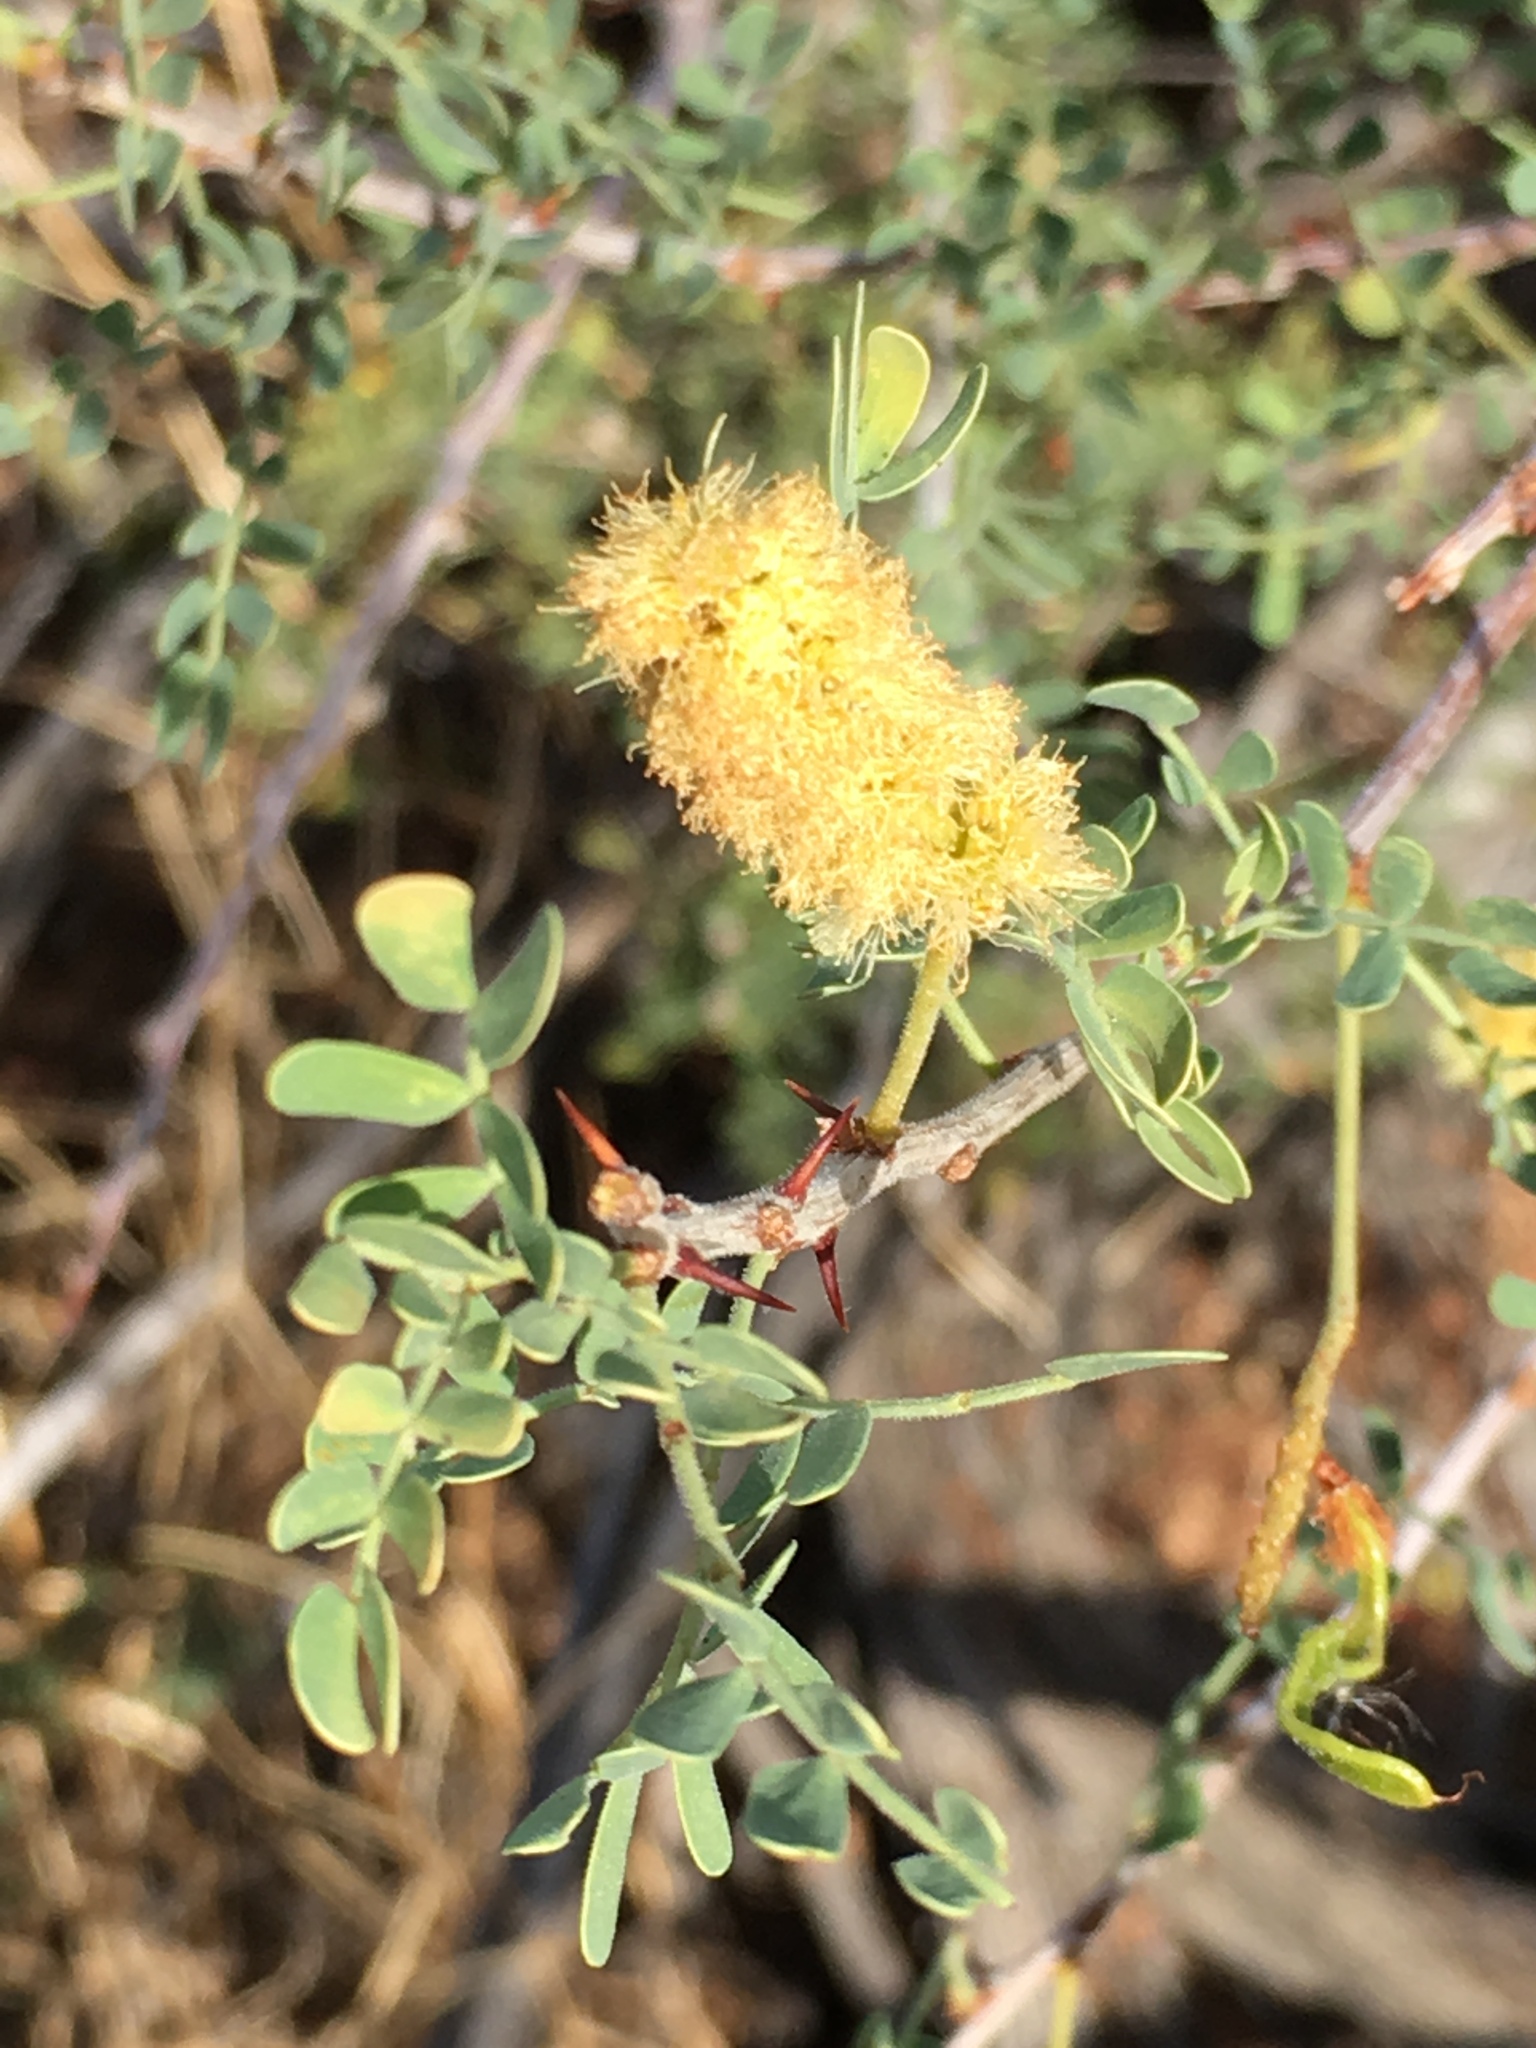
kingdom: Plantae
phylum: Tracheophyta
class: Magnoliopsida
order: Fabales
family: Fabaceae
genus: Senegalia
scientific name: Senegalia greggii
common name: Texas-mimosa
